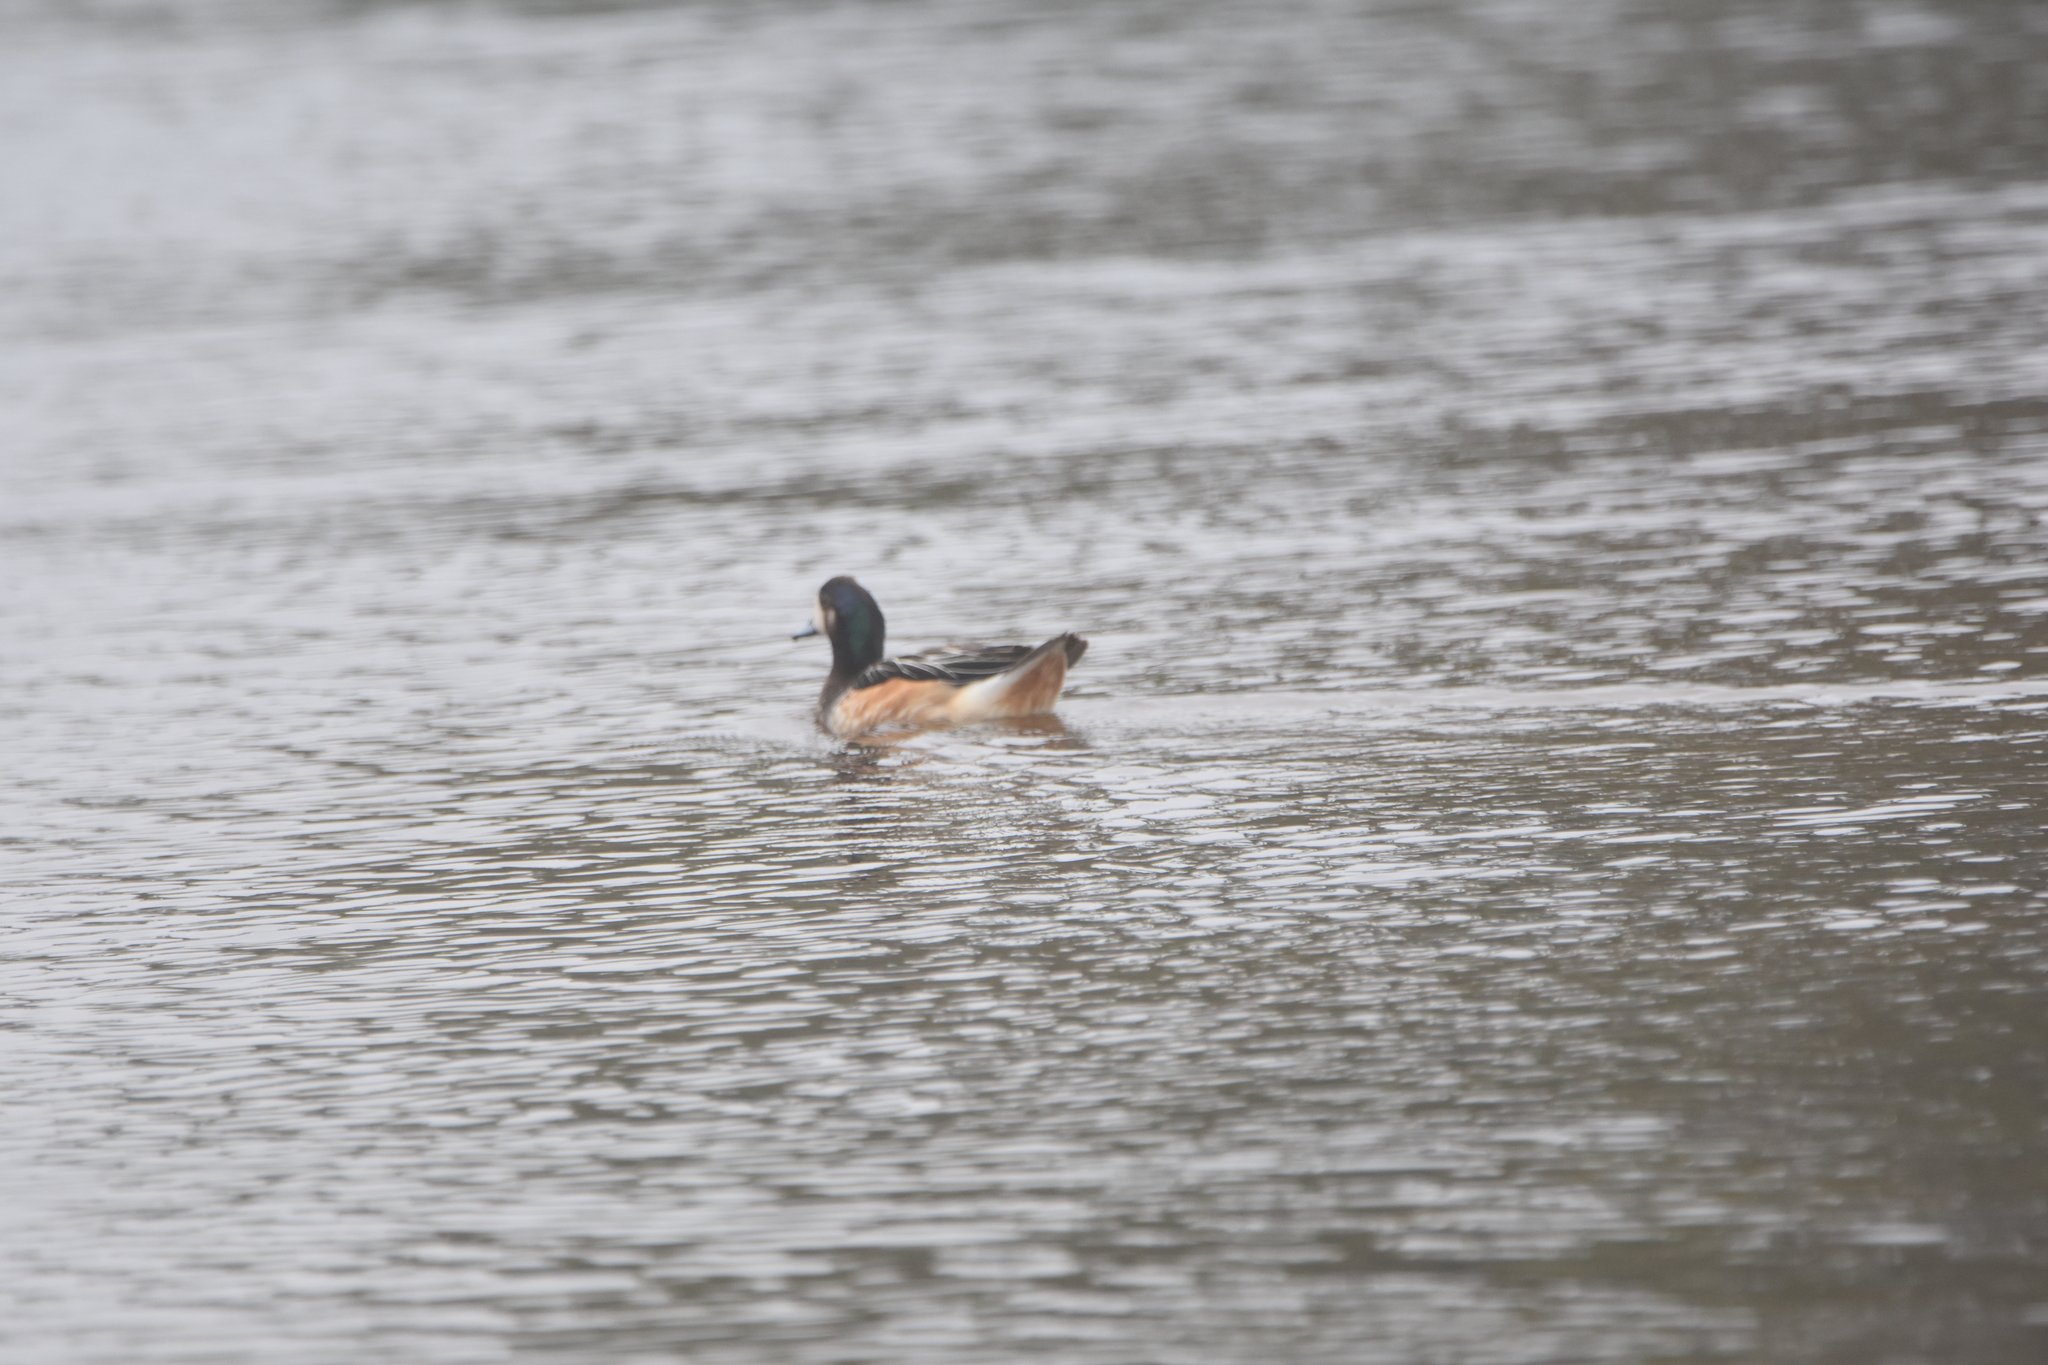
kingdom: Animalia
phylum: Chordata
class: Aves
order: Anseriformes
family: Anatidae
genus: Mareca
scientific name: Mareca sibilatrix
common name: Chiloe wigeon
